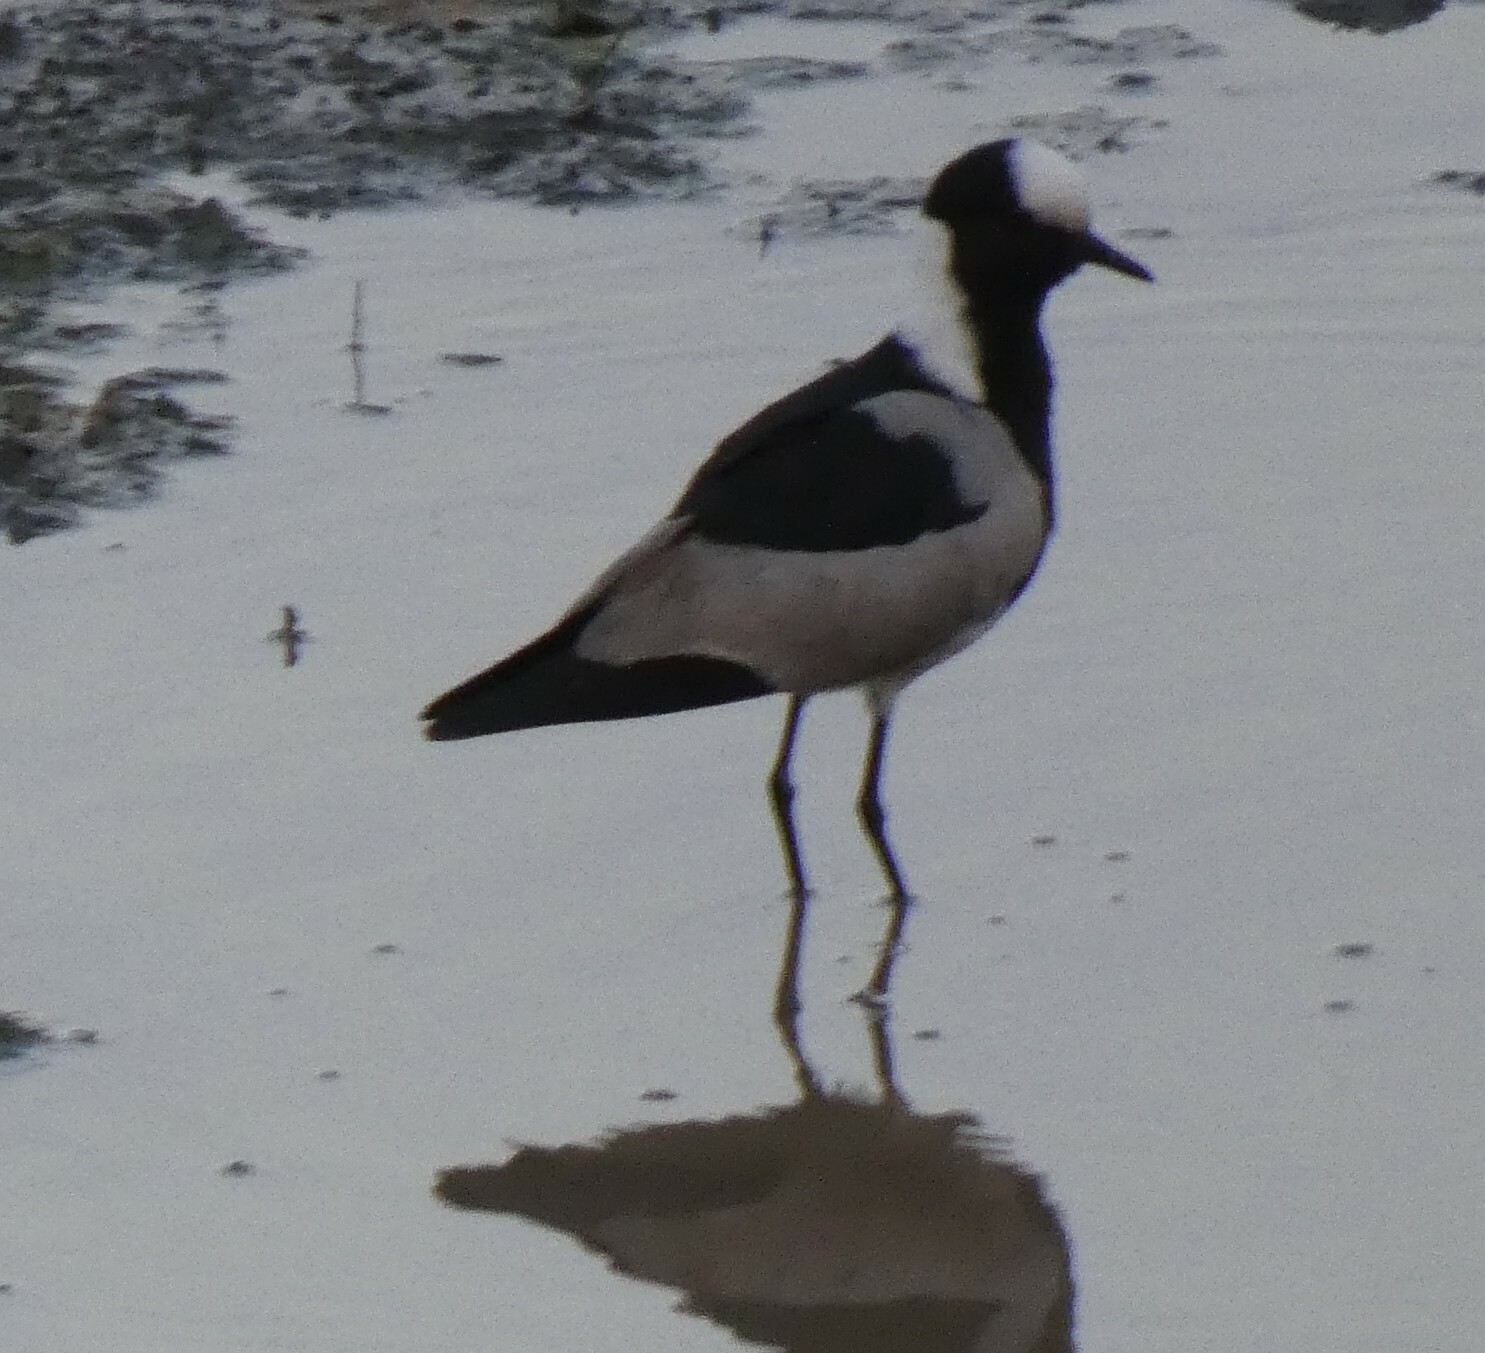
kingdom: Animalia
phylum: Chordata
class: Aves
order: Charadriiformes
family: Charadriidae
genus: Vanellus
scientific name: Vanellus armatus
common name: Blacksmith lapwing
